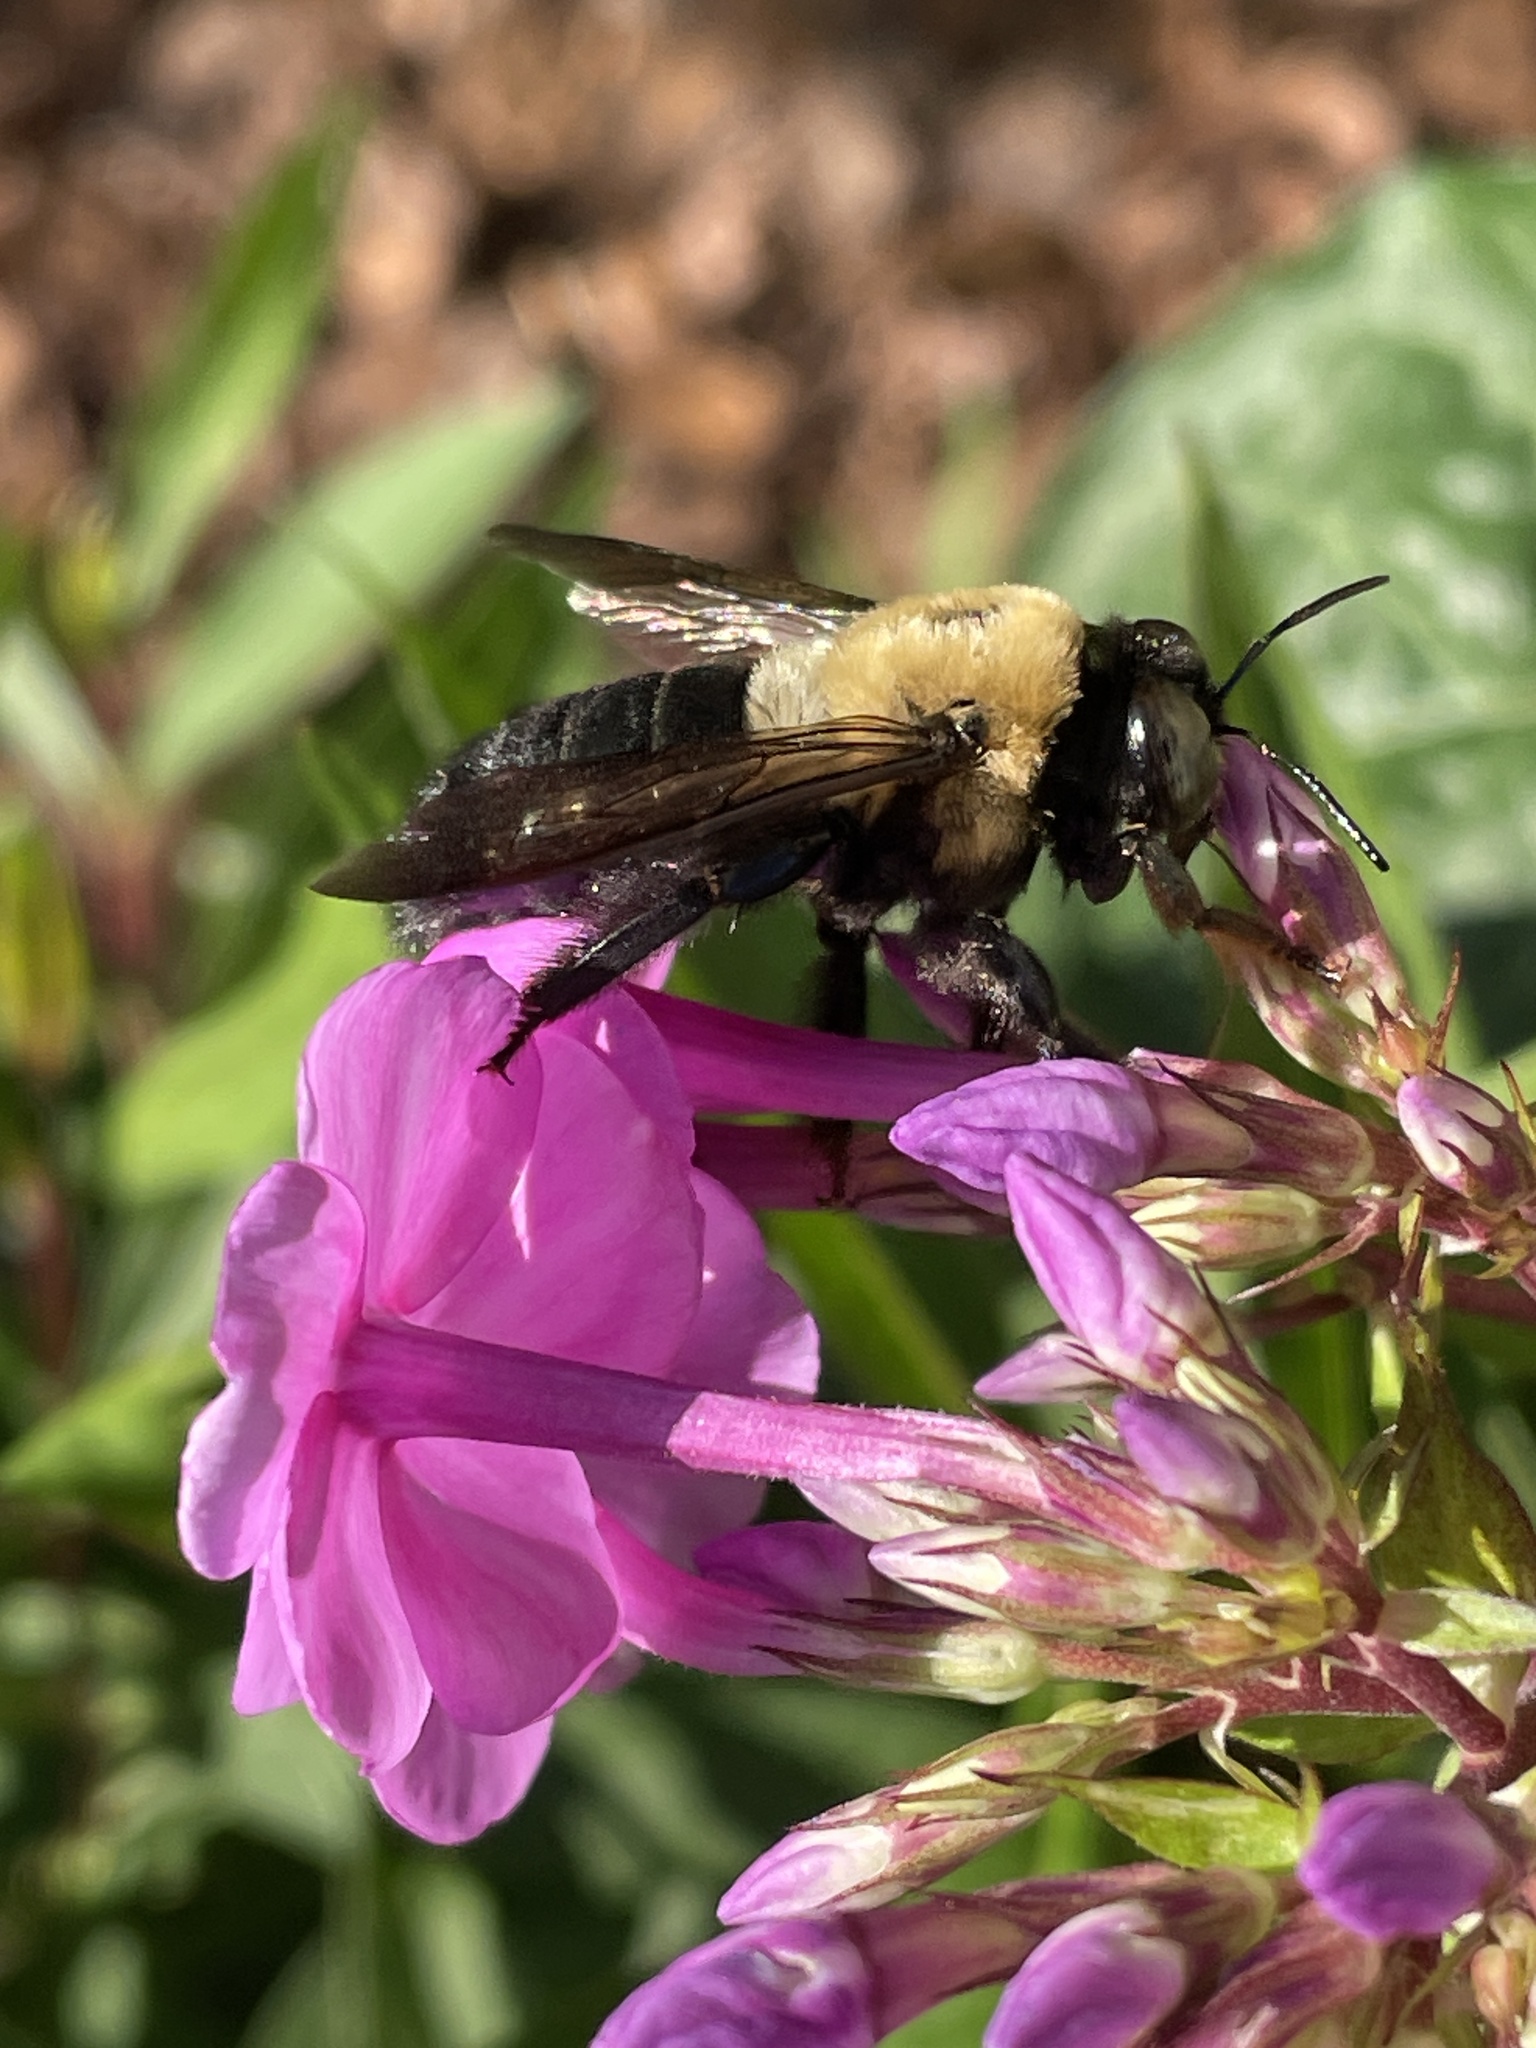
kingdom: Animalia
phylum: Arthropoda
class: Insecta
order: Hymenoptera
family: Apidae
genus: Xylocopa
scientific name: Xylocopa virginica
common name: Carpenter bee
